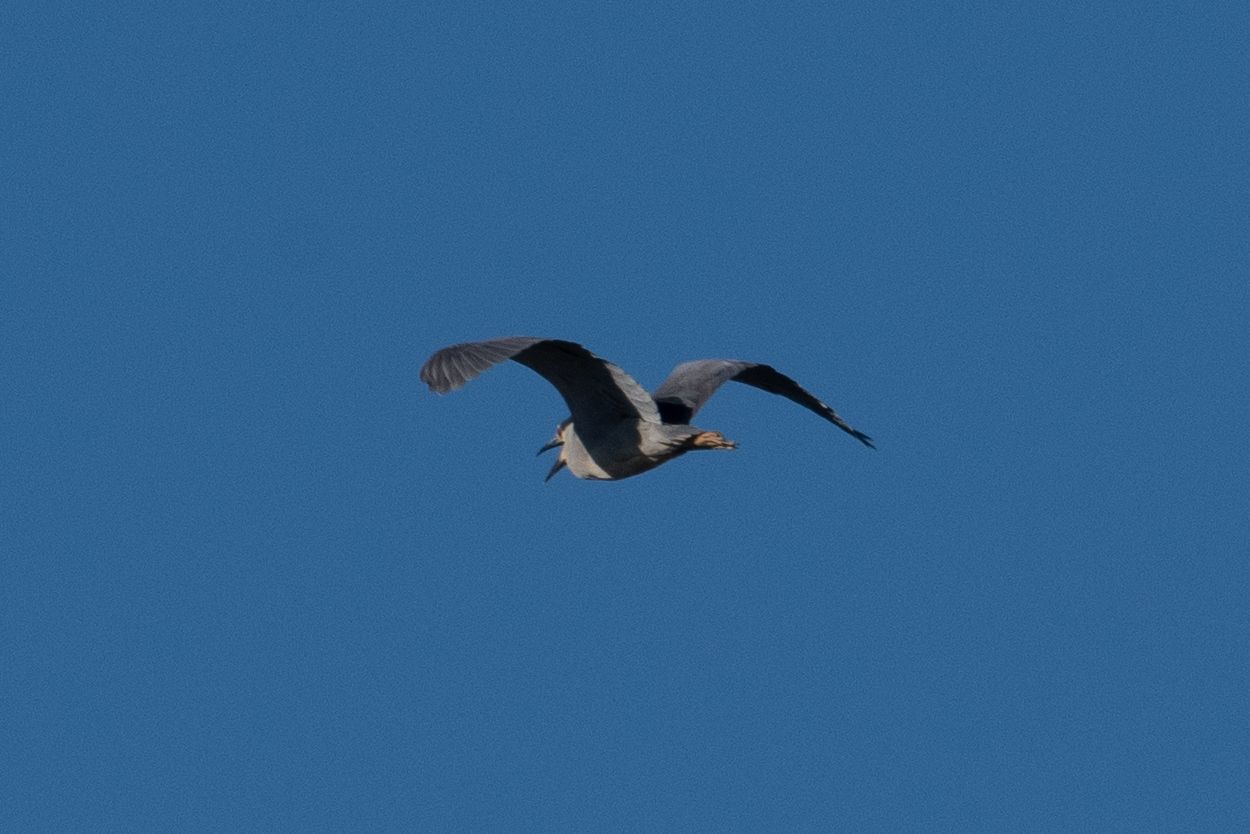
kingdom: Animalia
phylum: Chordata
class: Aves
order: Pelecaniformes
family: Ardeidae
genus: Nycticorax
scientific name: Nycticorax nycticorax
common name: Black-crowned night heron
